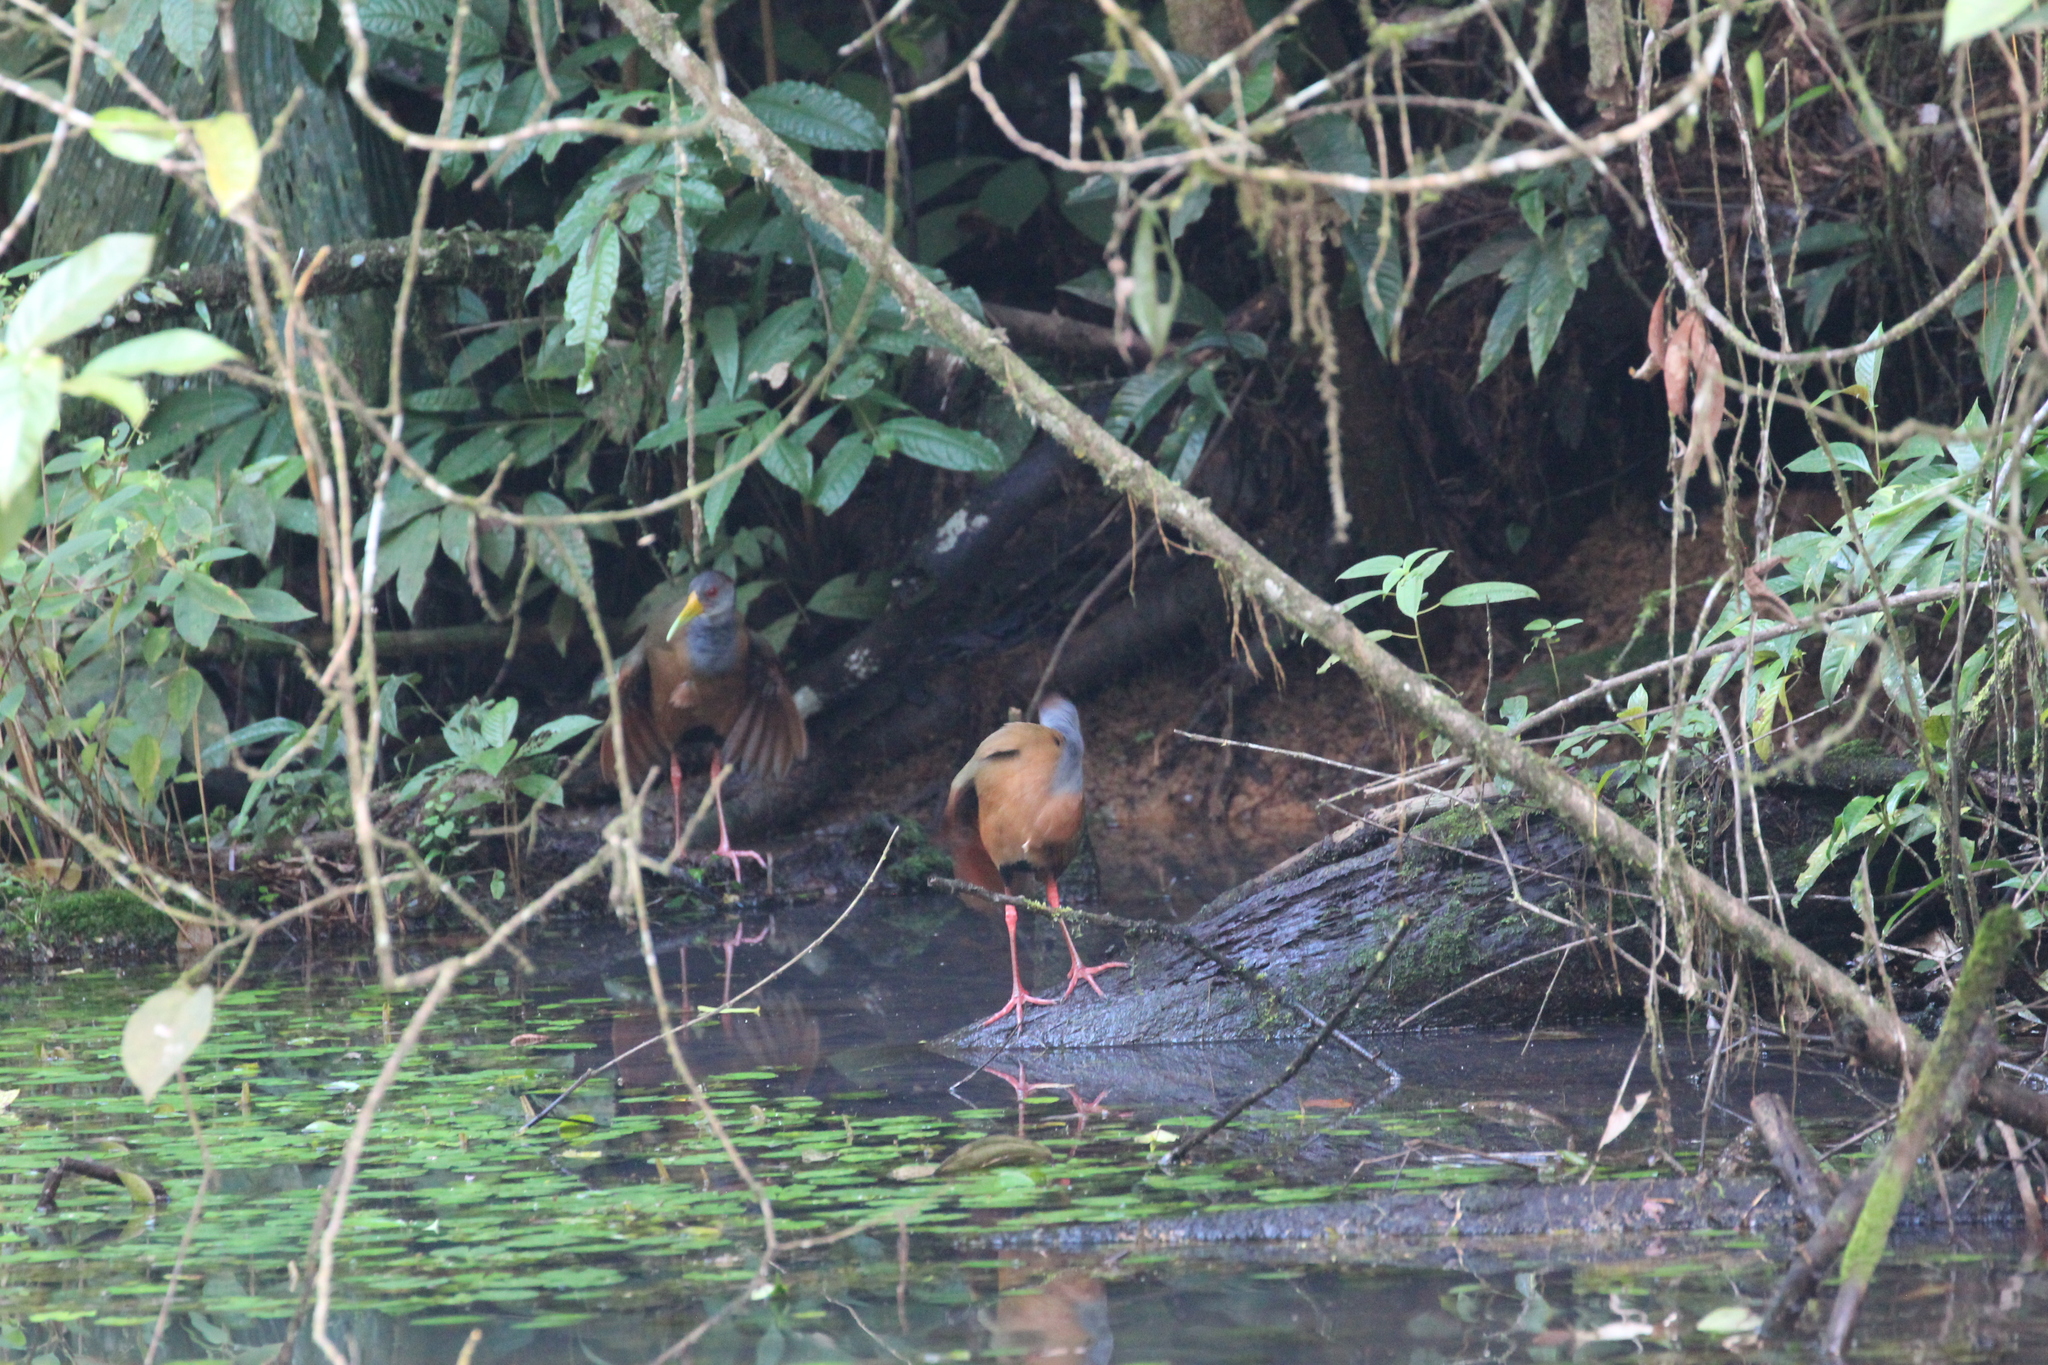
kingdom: Animalia
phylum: Chordata
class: Aves
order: Gruiformes
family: Rallidae
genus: Aramides
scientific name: Aramides albiventris
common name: Russet-naped wood-rail
